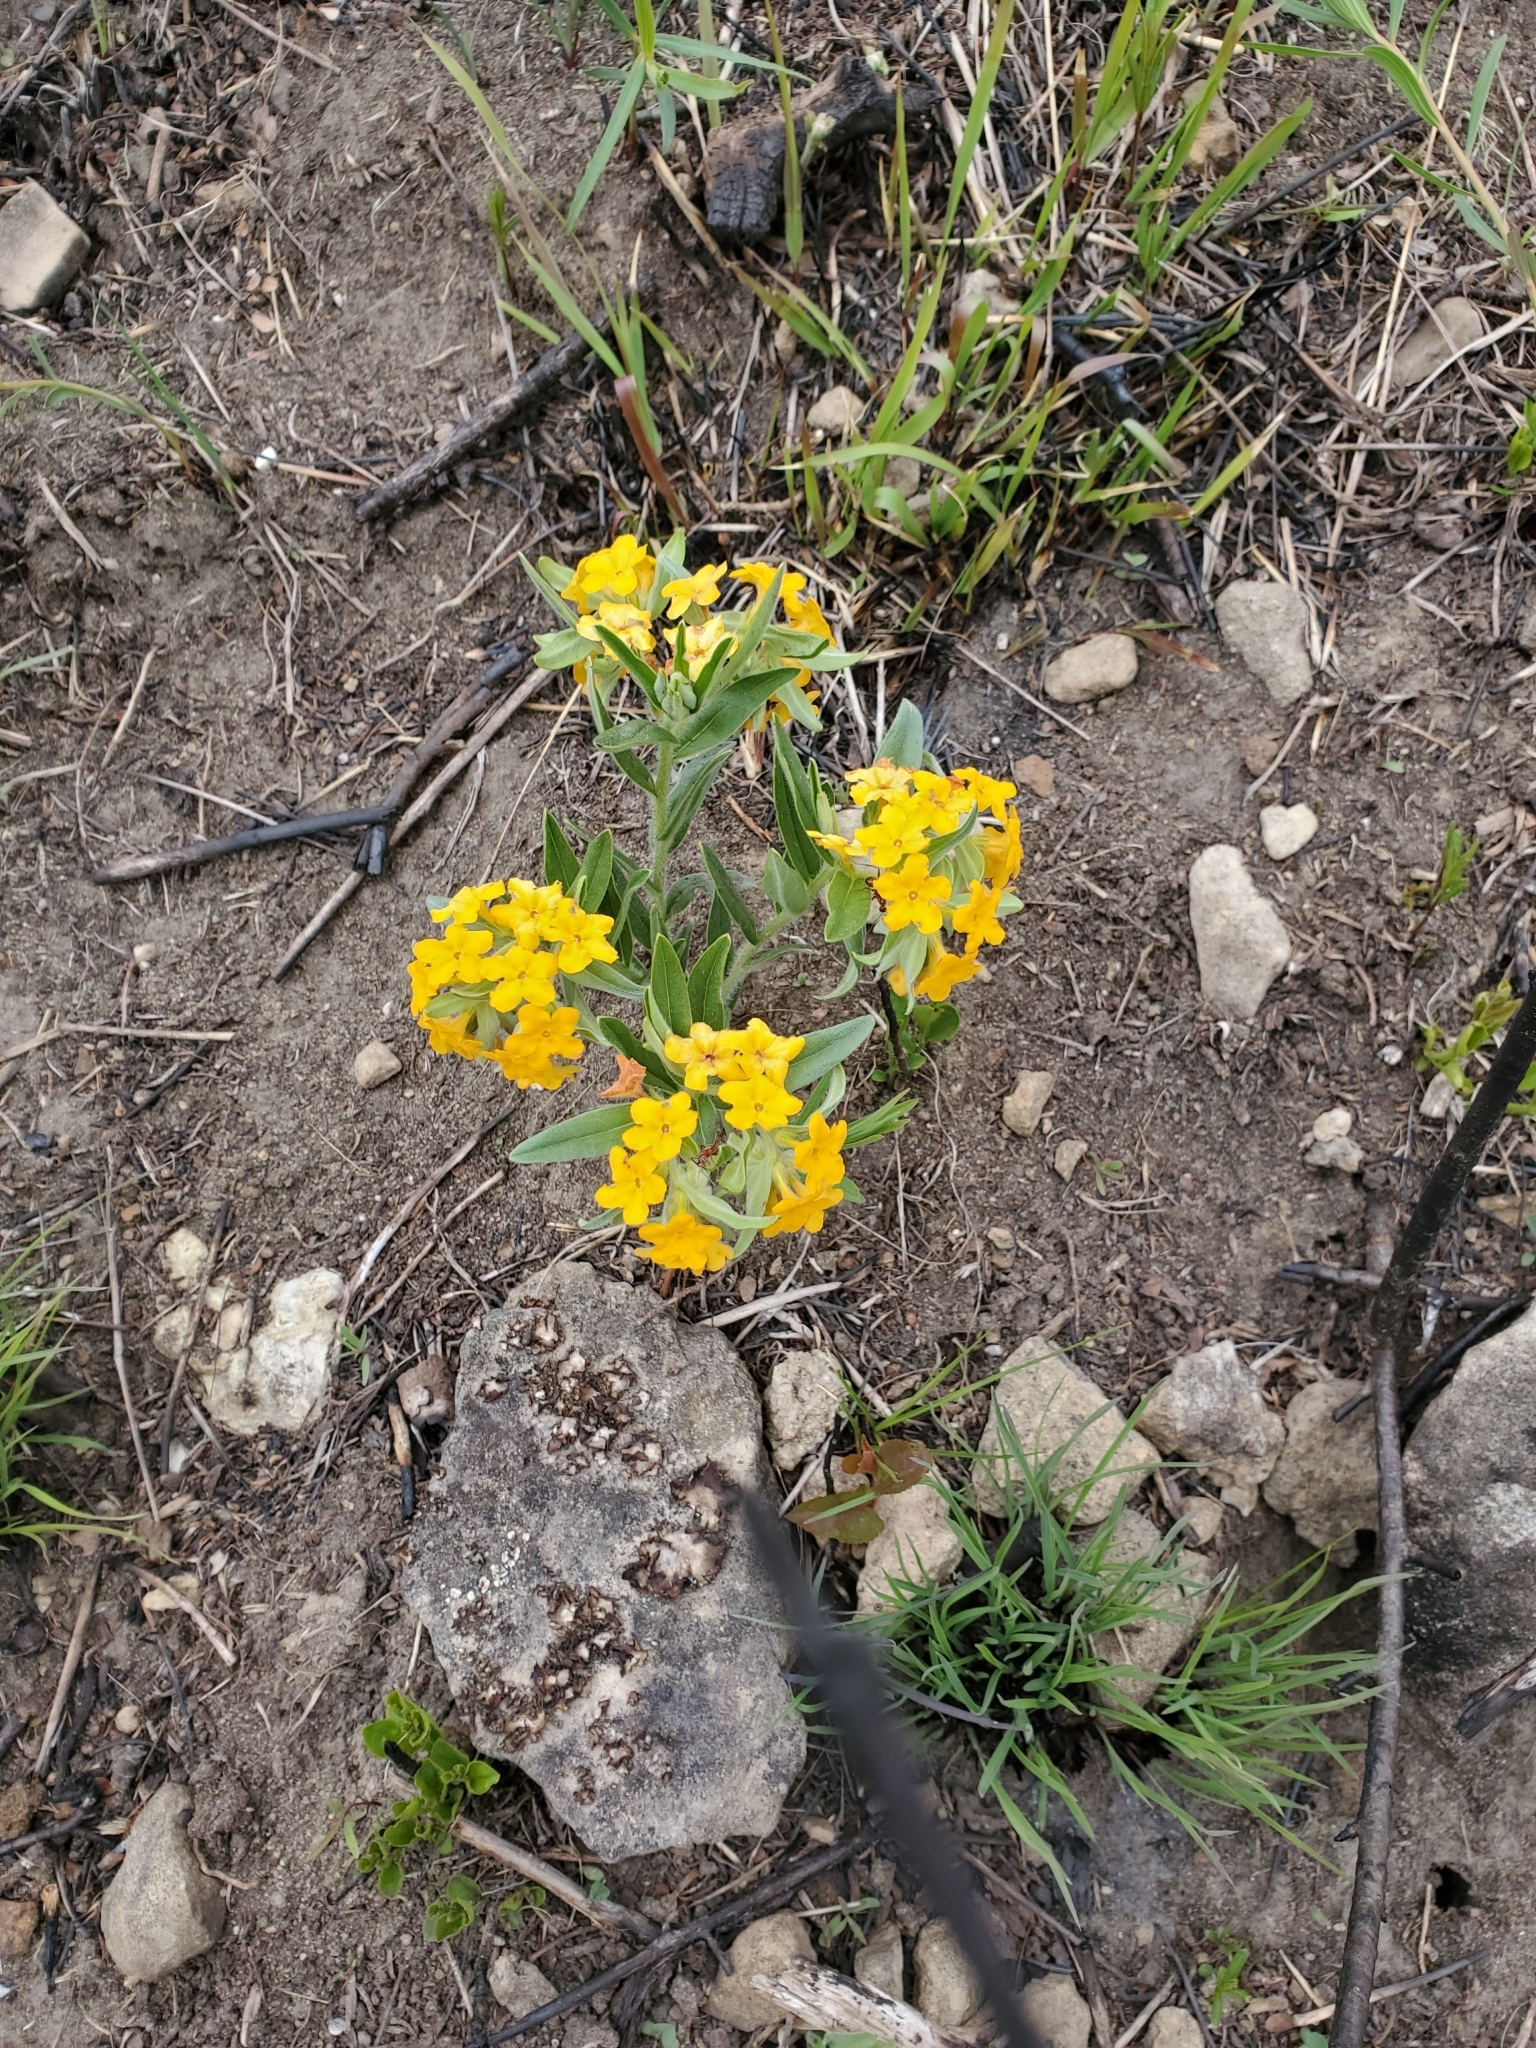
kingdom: Plantae
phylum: Tracheophyta
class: Magnoliopsida
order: Boraginales
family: Boraginaceae
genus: Lithospermum
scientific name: Lithospermum canescens
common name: Hoary puccoon
